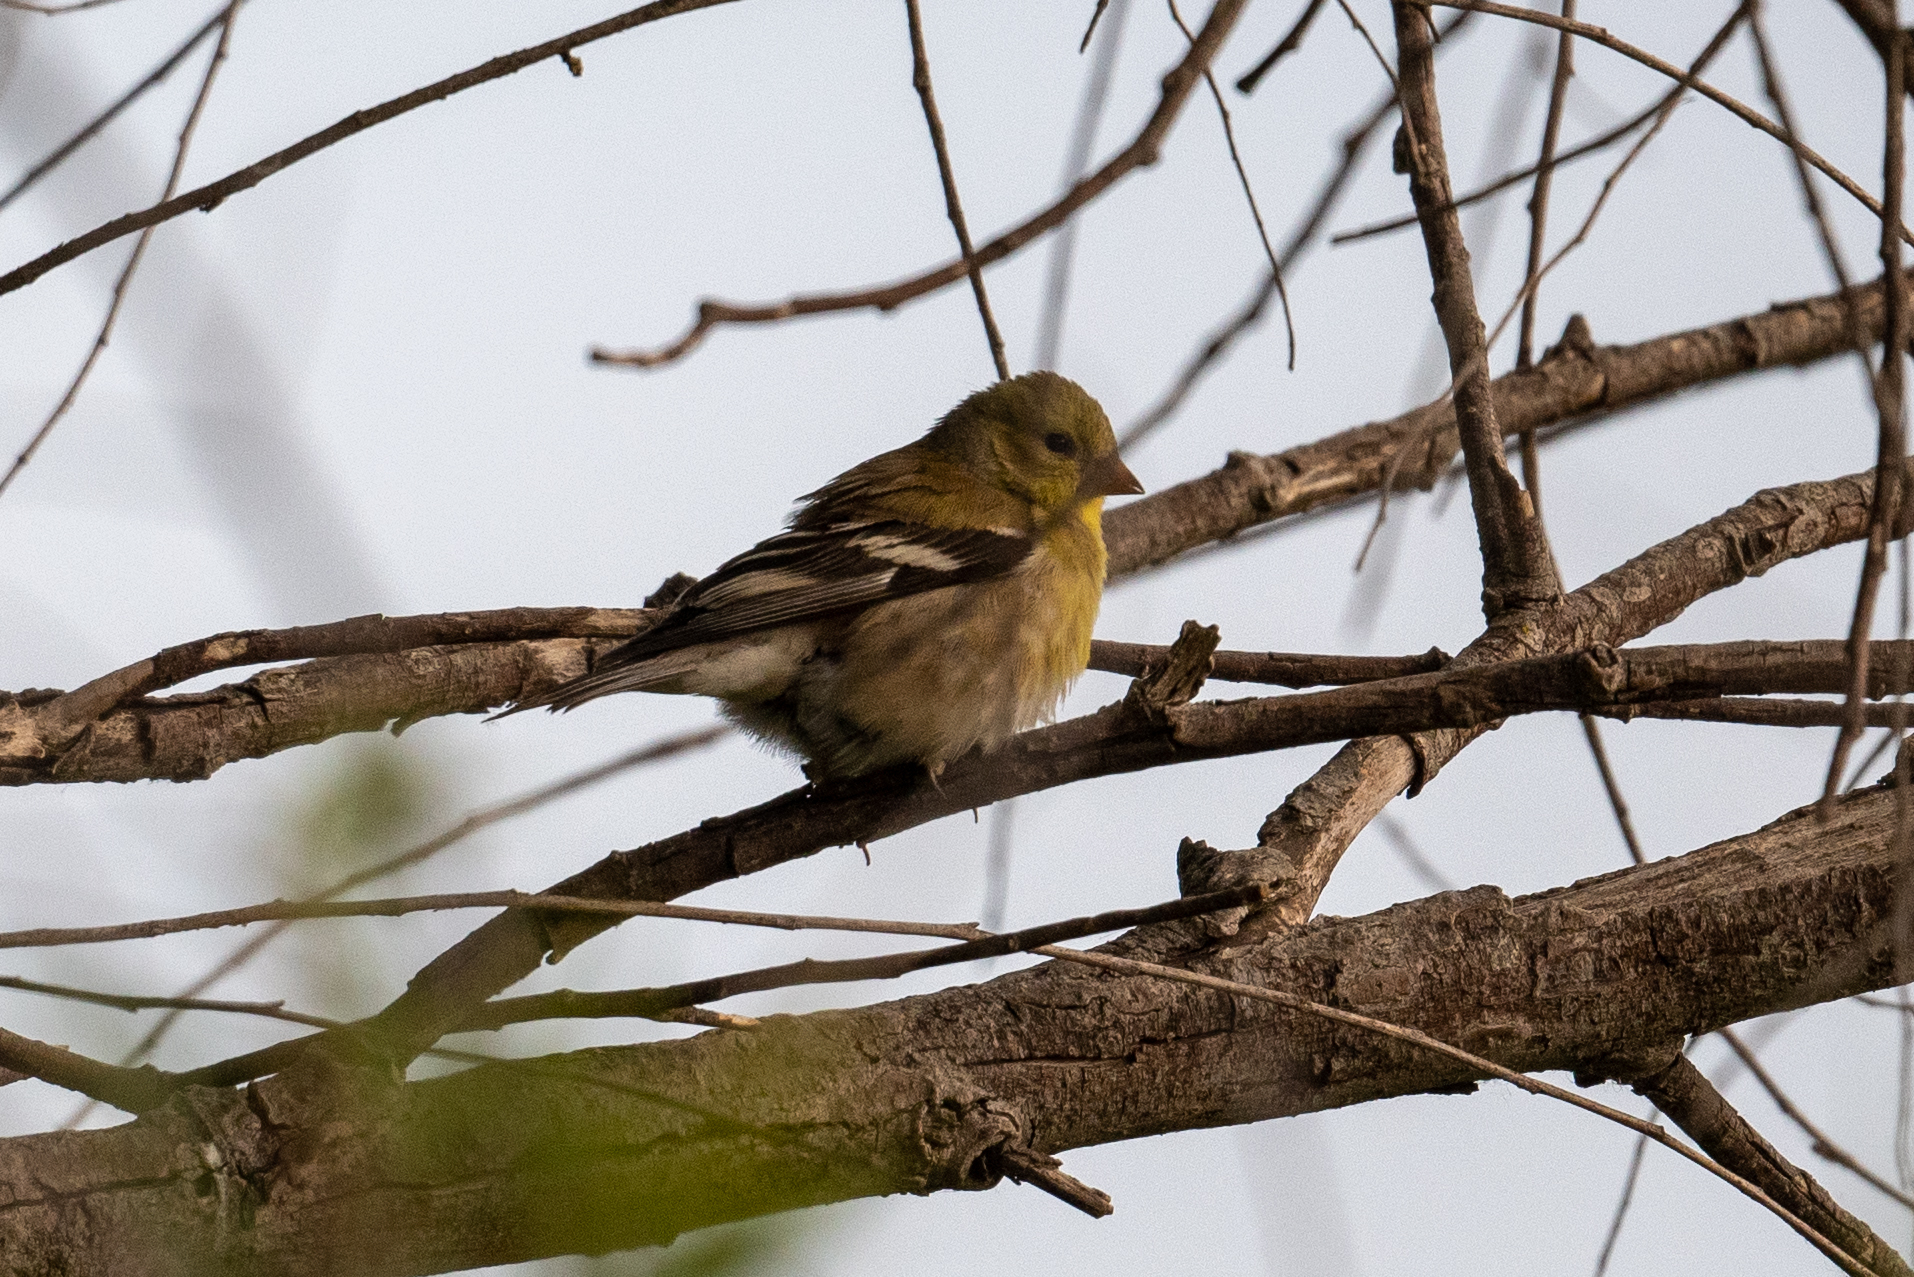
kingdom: Animalia
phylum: Chordata
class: Aves
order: Passeriformes
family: Fringillidae
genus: Spinus
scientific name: Spinus tristis
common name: American goldfinch
